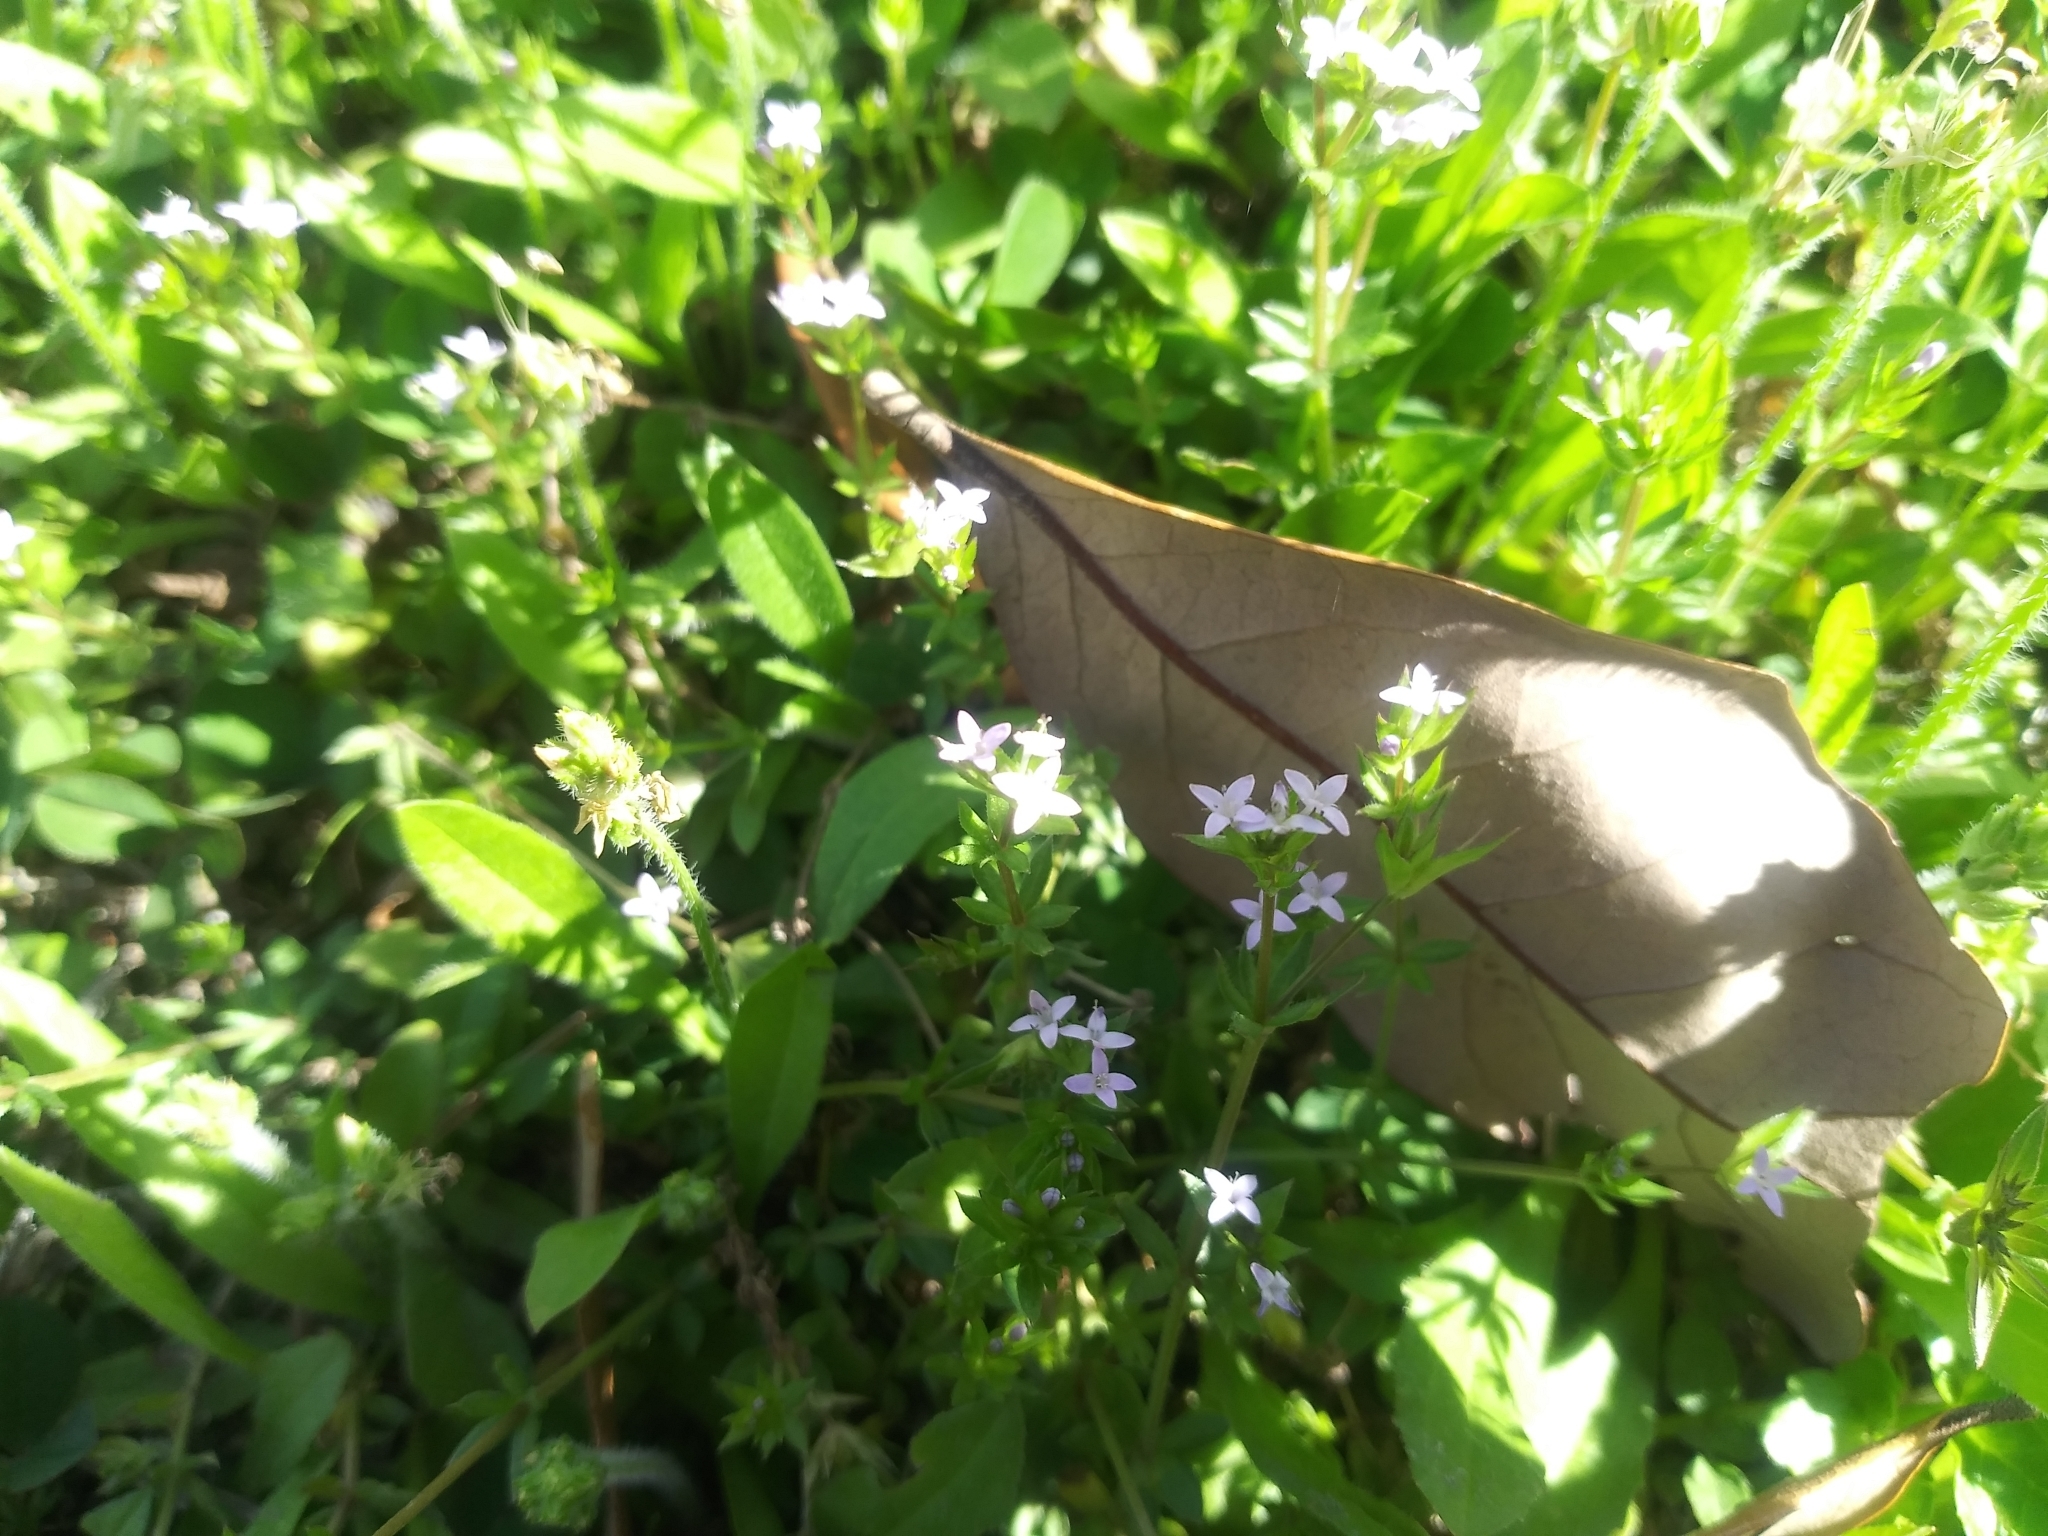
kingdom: Plantae
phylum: Tracheophyta
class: Magnoliopsida
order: Gentianales
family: Rubiaceae
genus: Sherardia
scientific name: Sherardia arvensis
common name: Field madder
